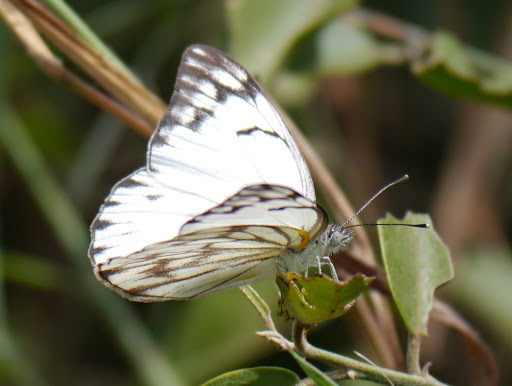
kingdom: Animalia
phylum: Arthropoda
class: Insecta
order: Lepidoptera
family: Pieridae
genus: Belenois
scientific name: Belenois gidica
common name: Pointed caper white
